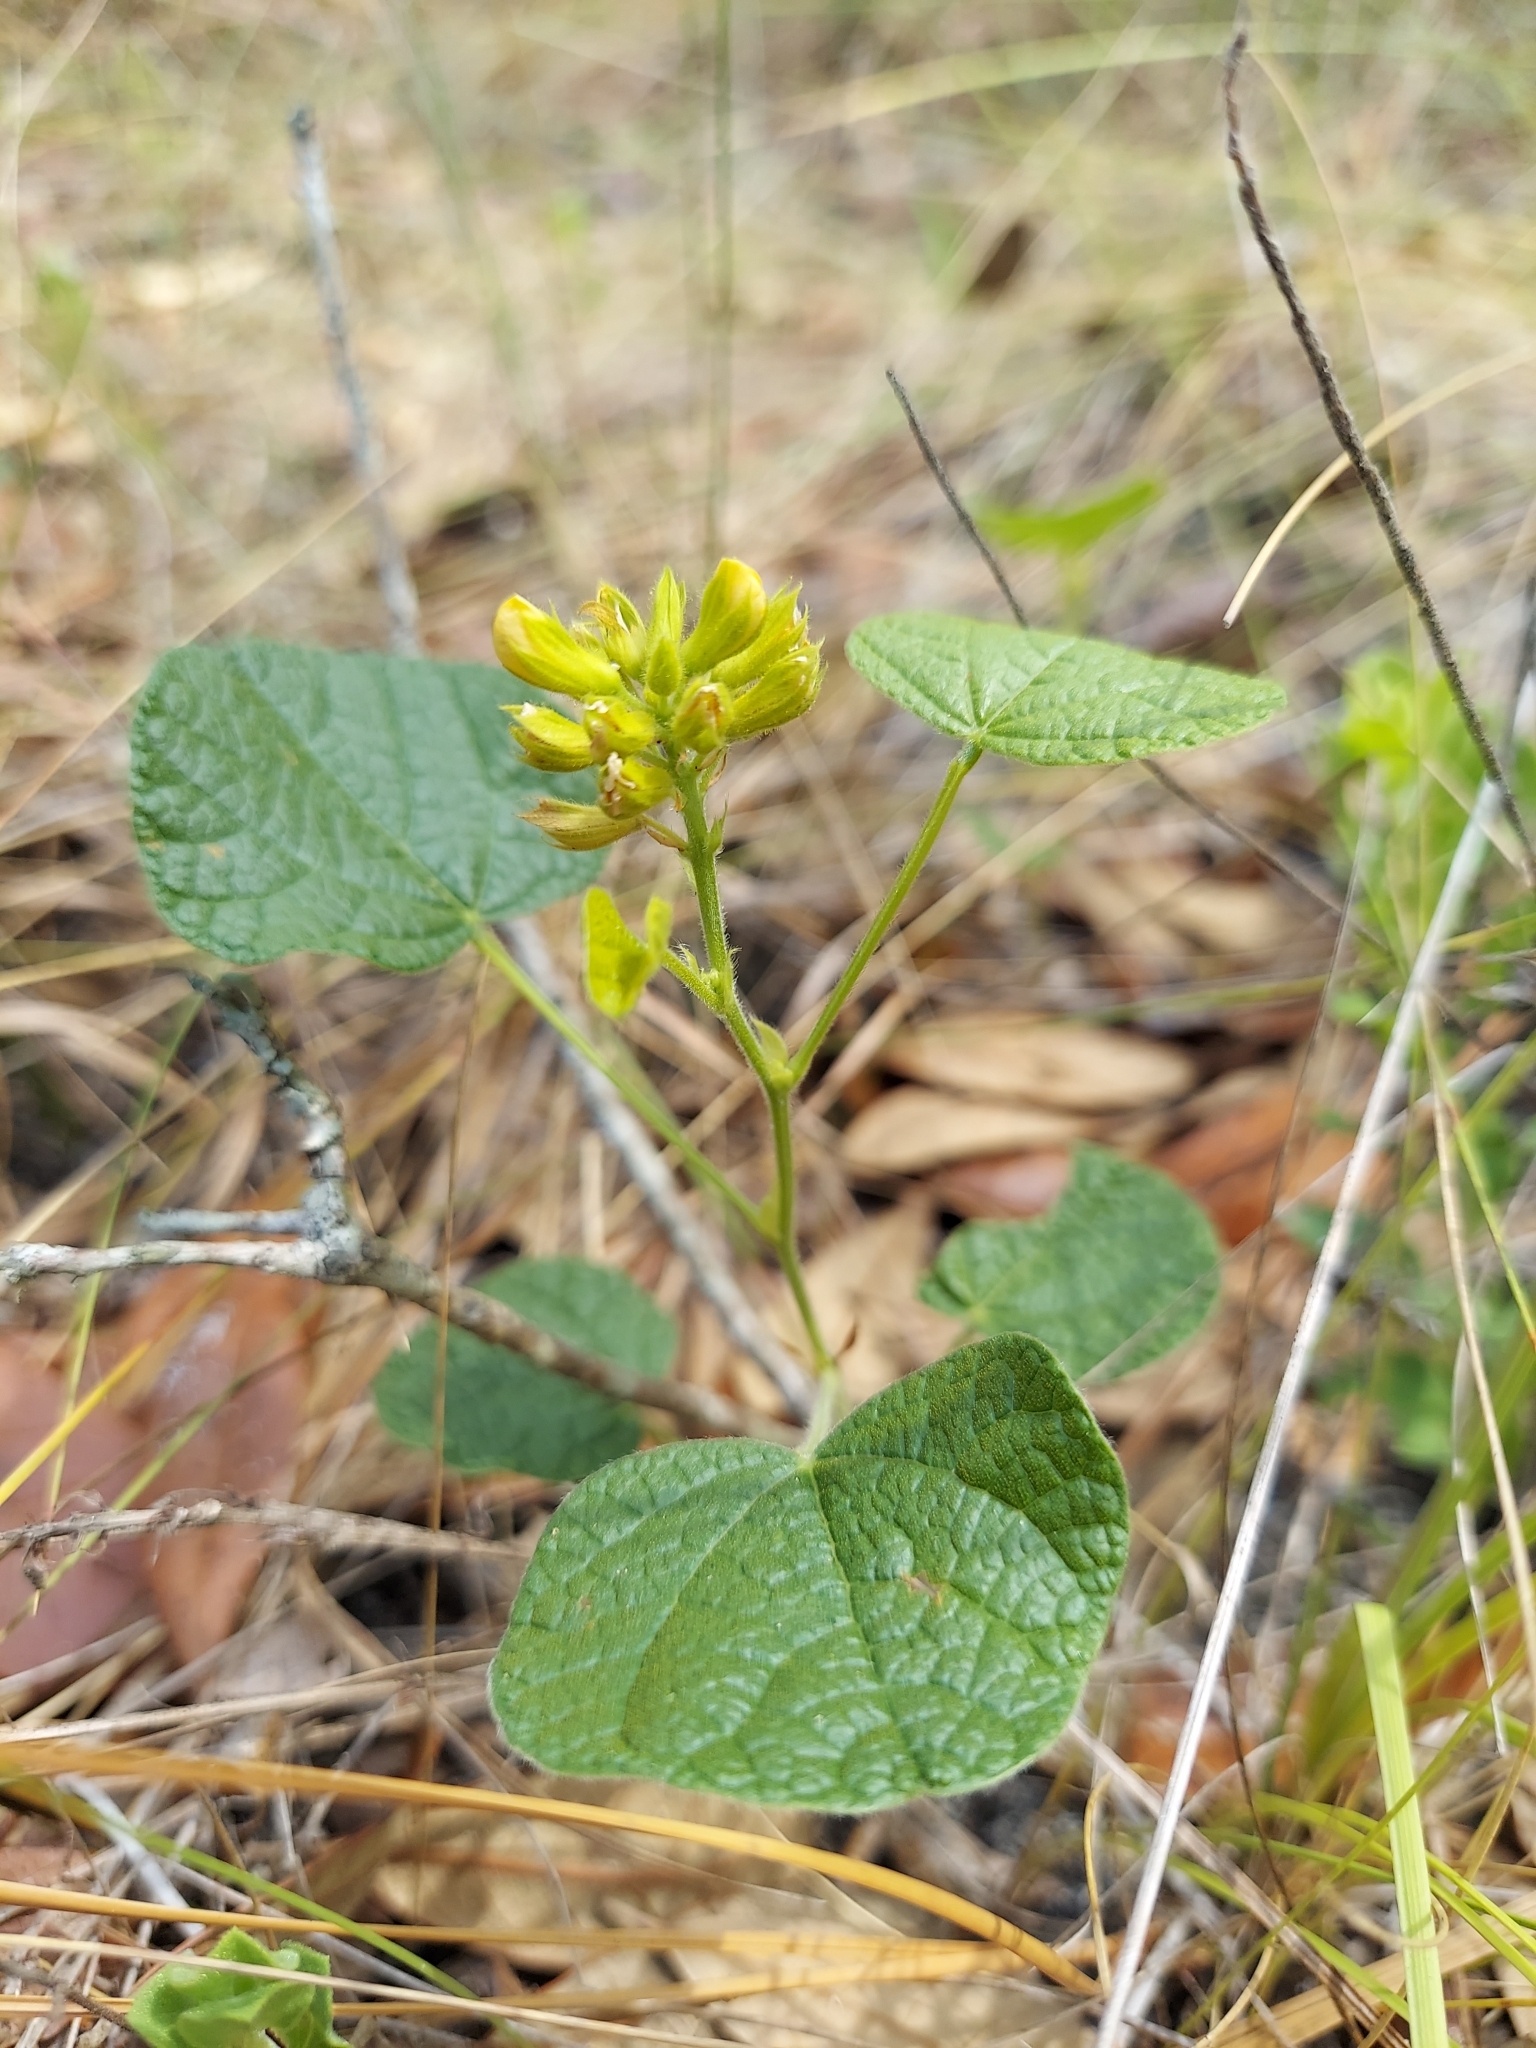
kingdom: Plantae
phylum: Tracheophyta
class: Magnoliopsida
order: Fabales
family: Fabaceae
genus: Rhynchosia
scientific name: Rhynchosia reniformis
